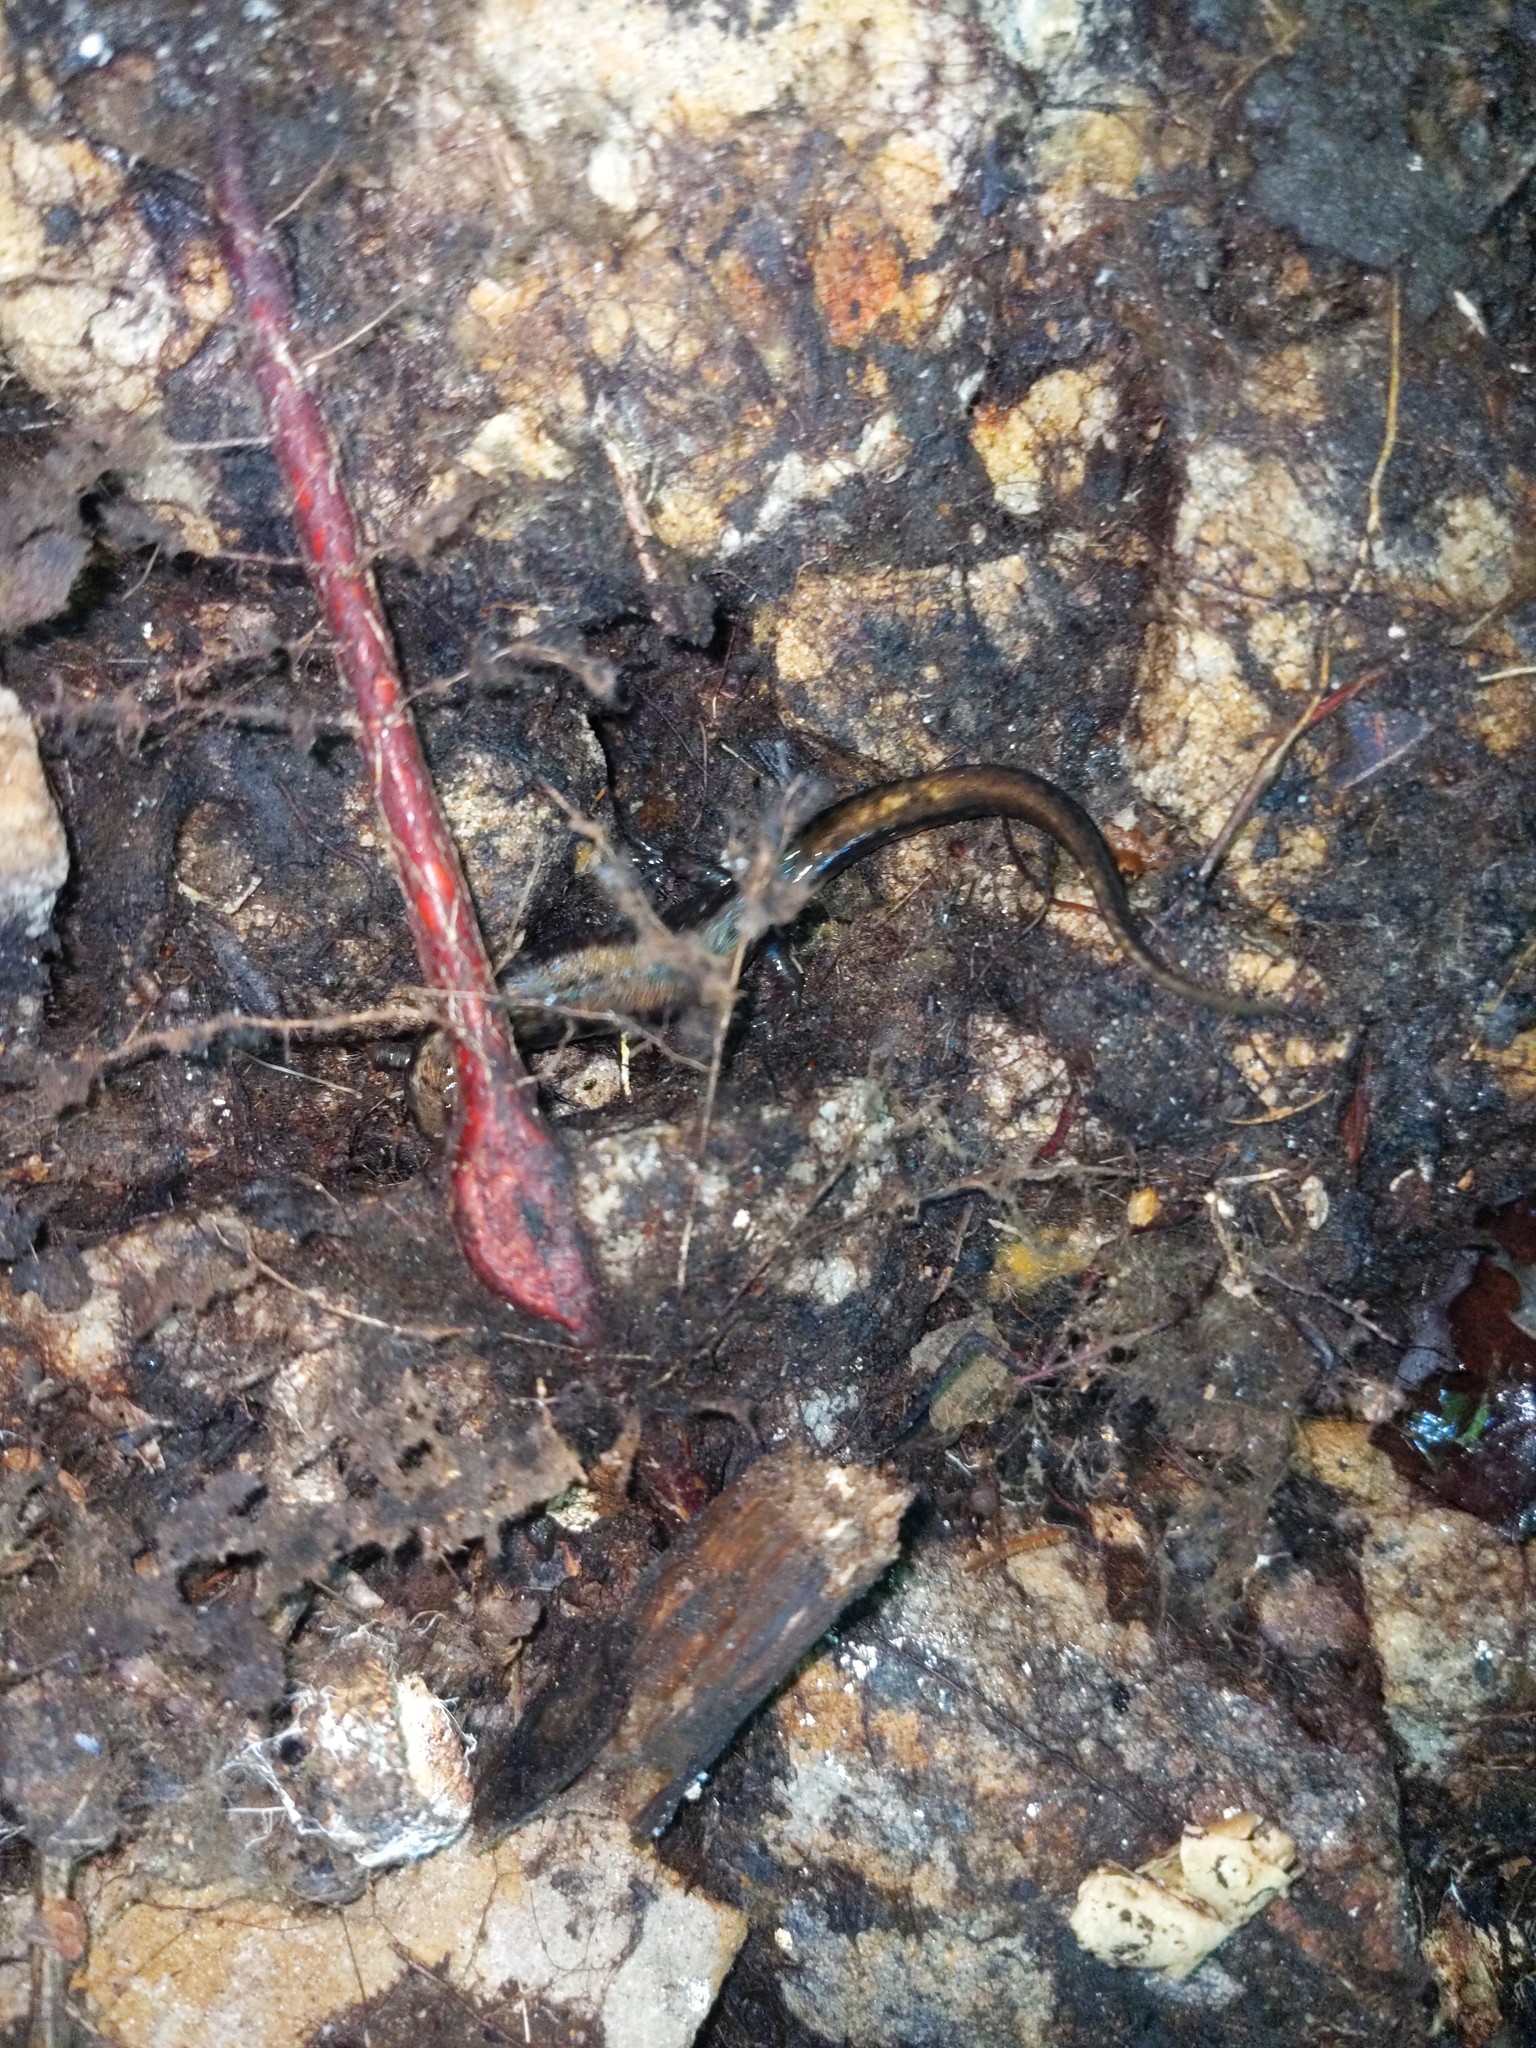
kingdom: Animalia
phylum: Chordata
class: Amphibia
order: Caudata
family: Plethodontidae
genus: Desmognathus
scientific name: Desmognathus ochrophaeus
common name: Allegheny mountain dusky salamander
